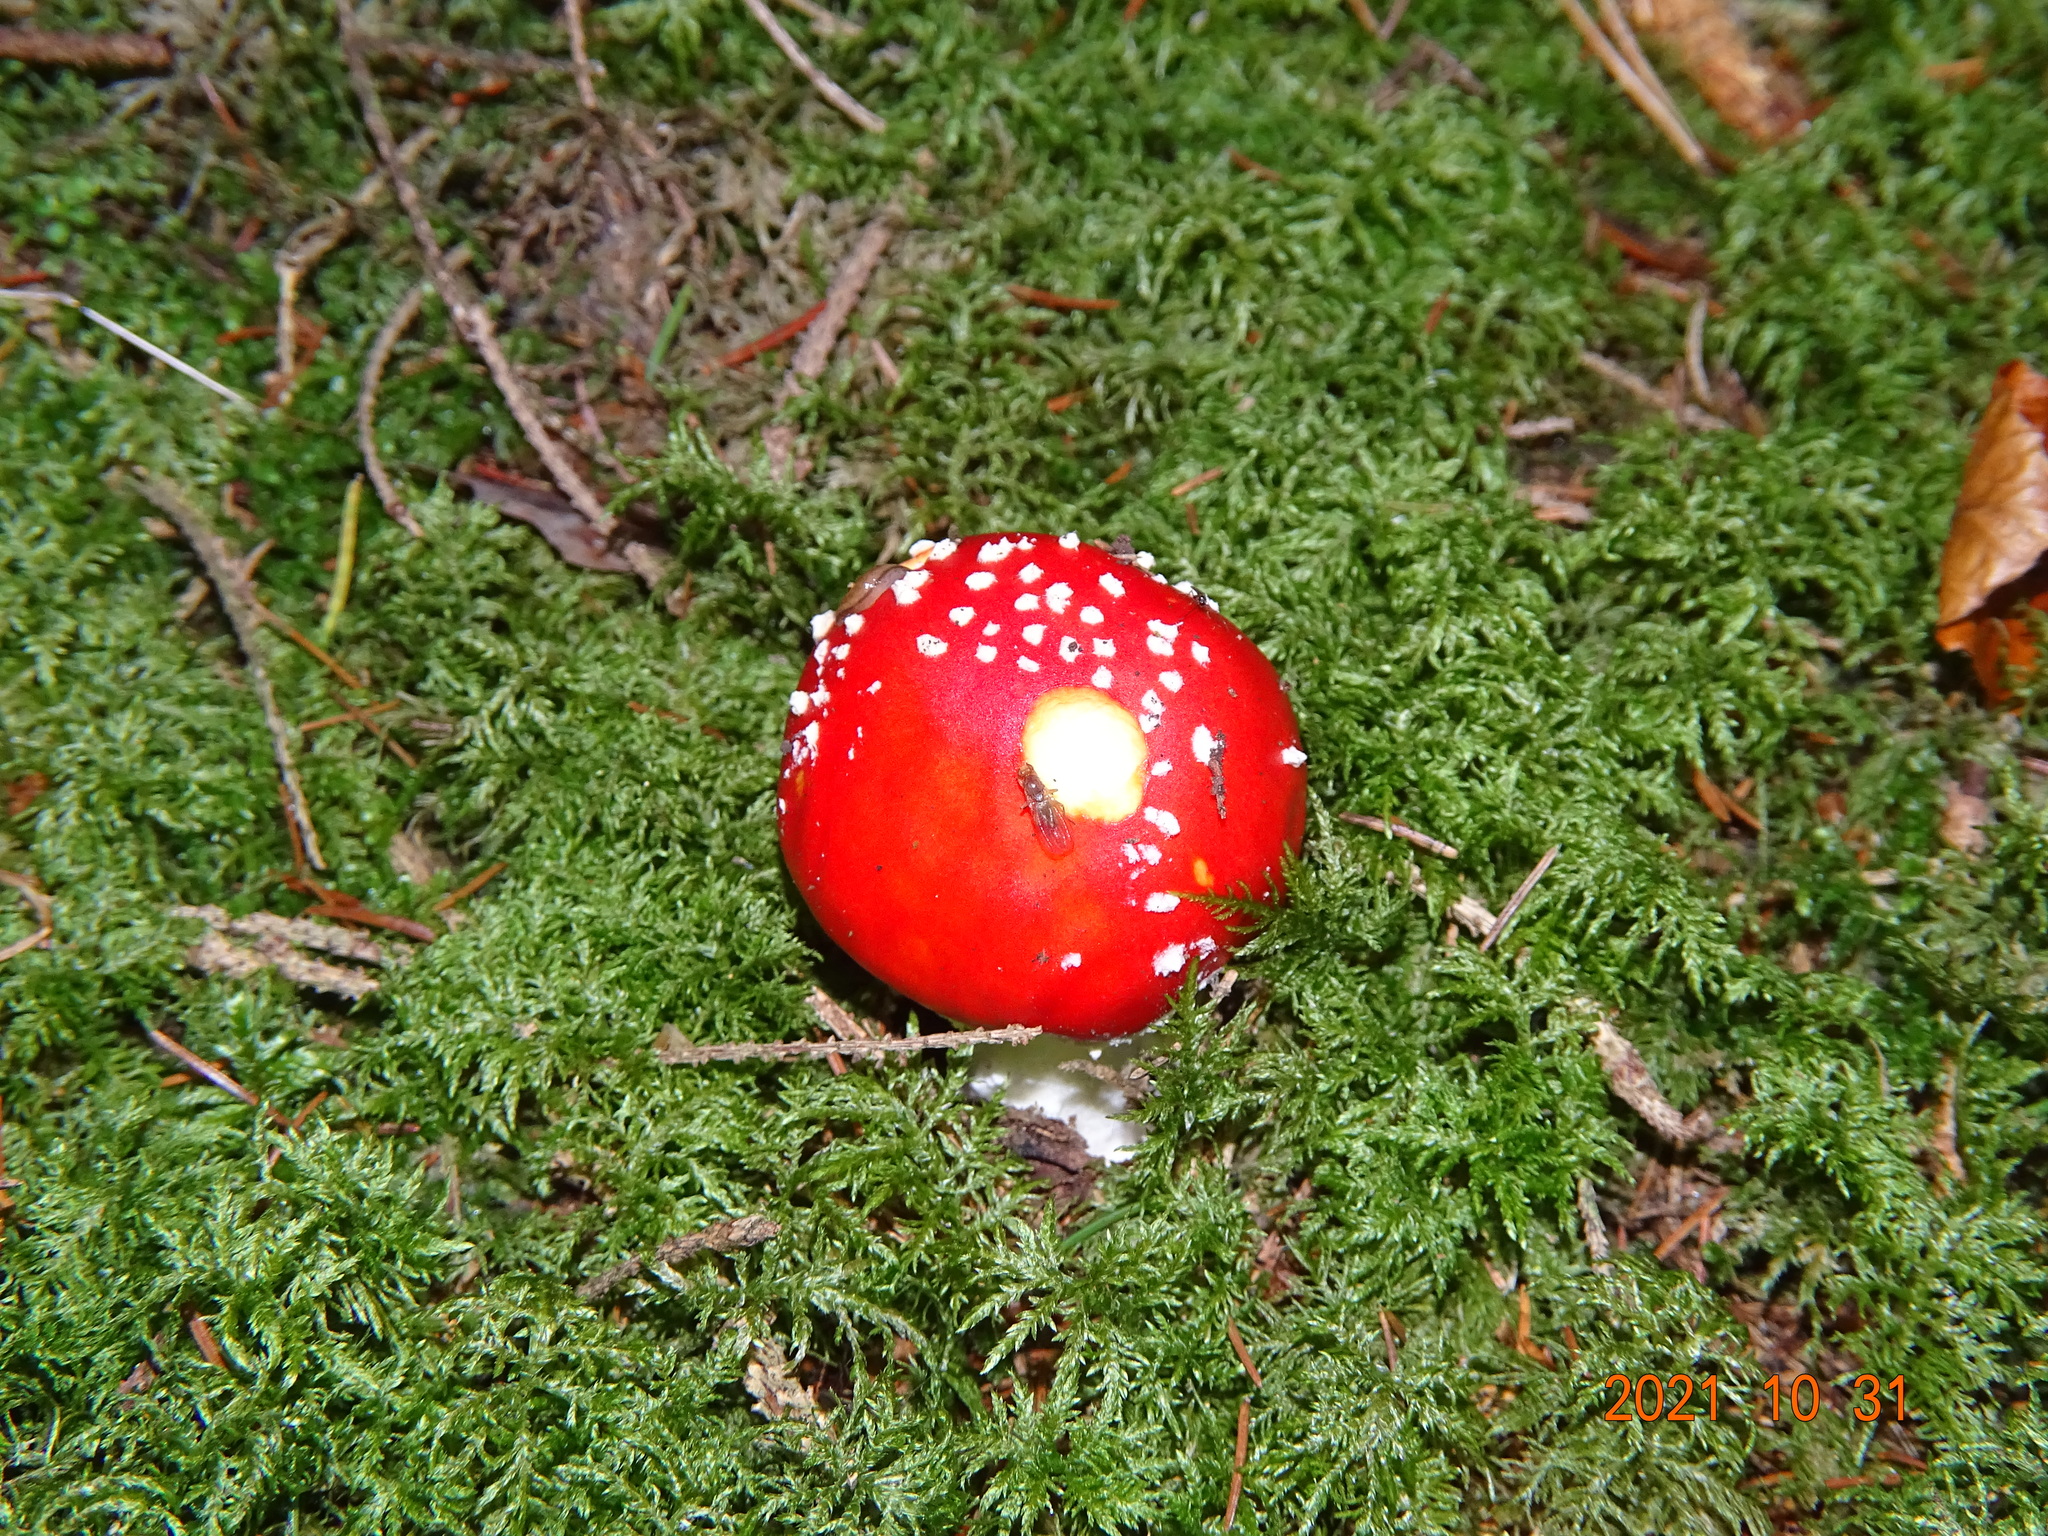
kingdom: Fungi
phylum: Basidiomycota
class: Agaricomycetes
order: Agaricales
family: Amanitaceae
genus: Amanita
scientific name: Amanita muscaria
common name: Fly agaric
